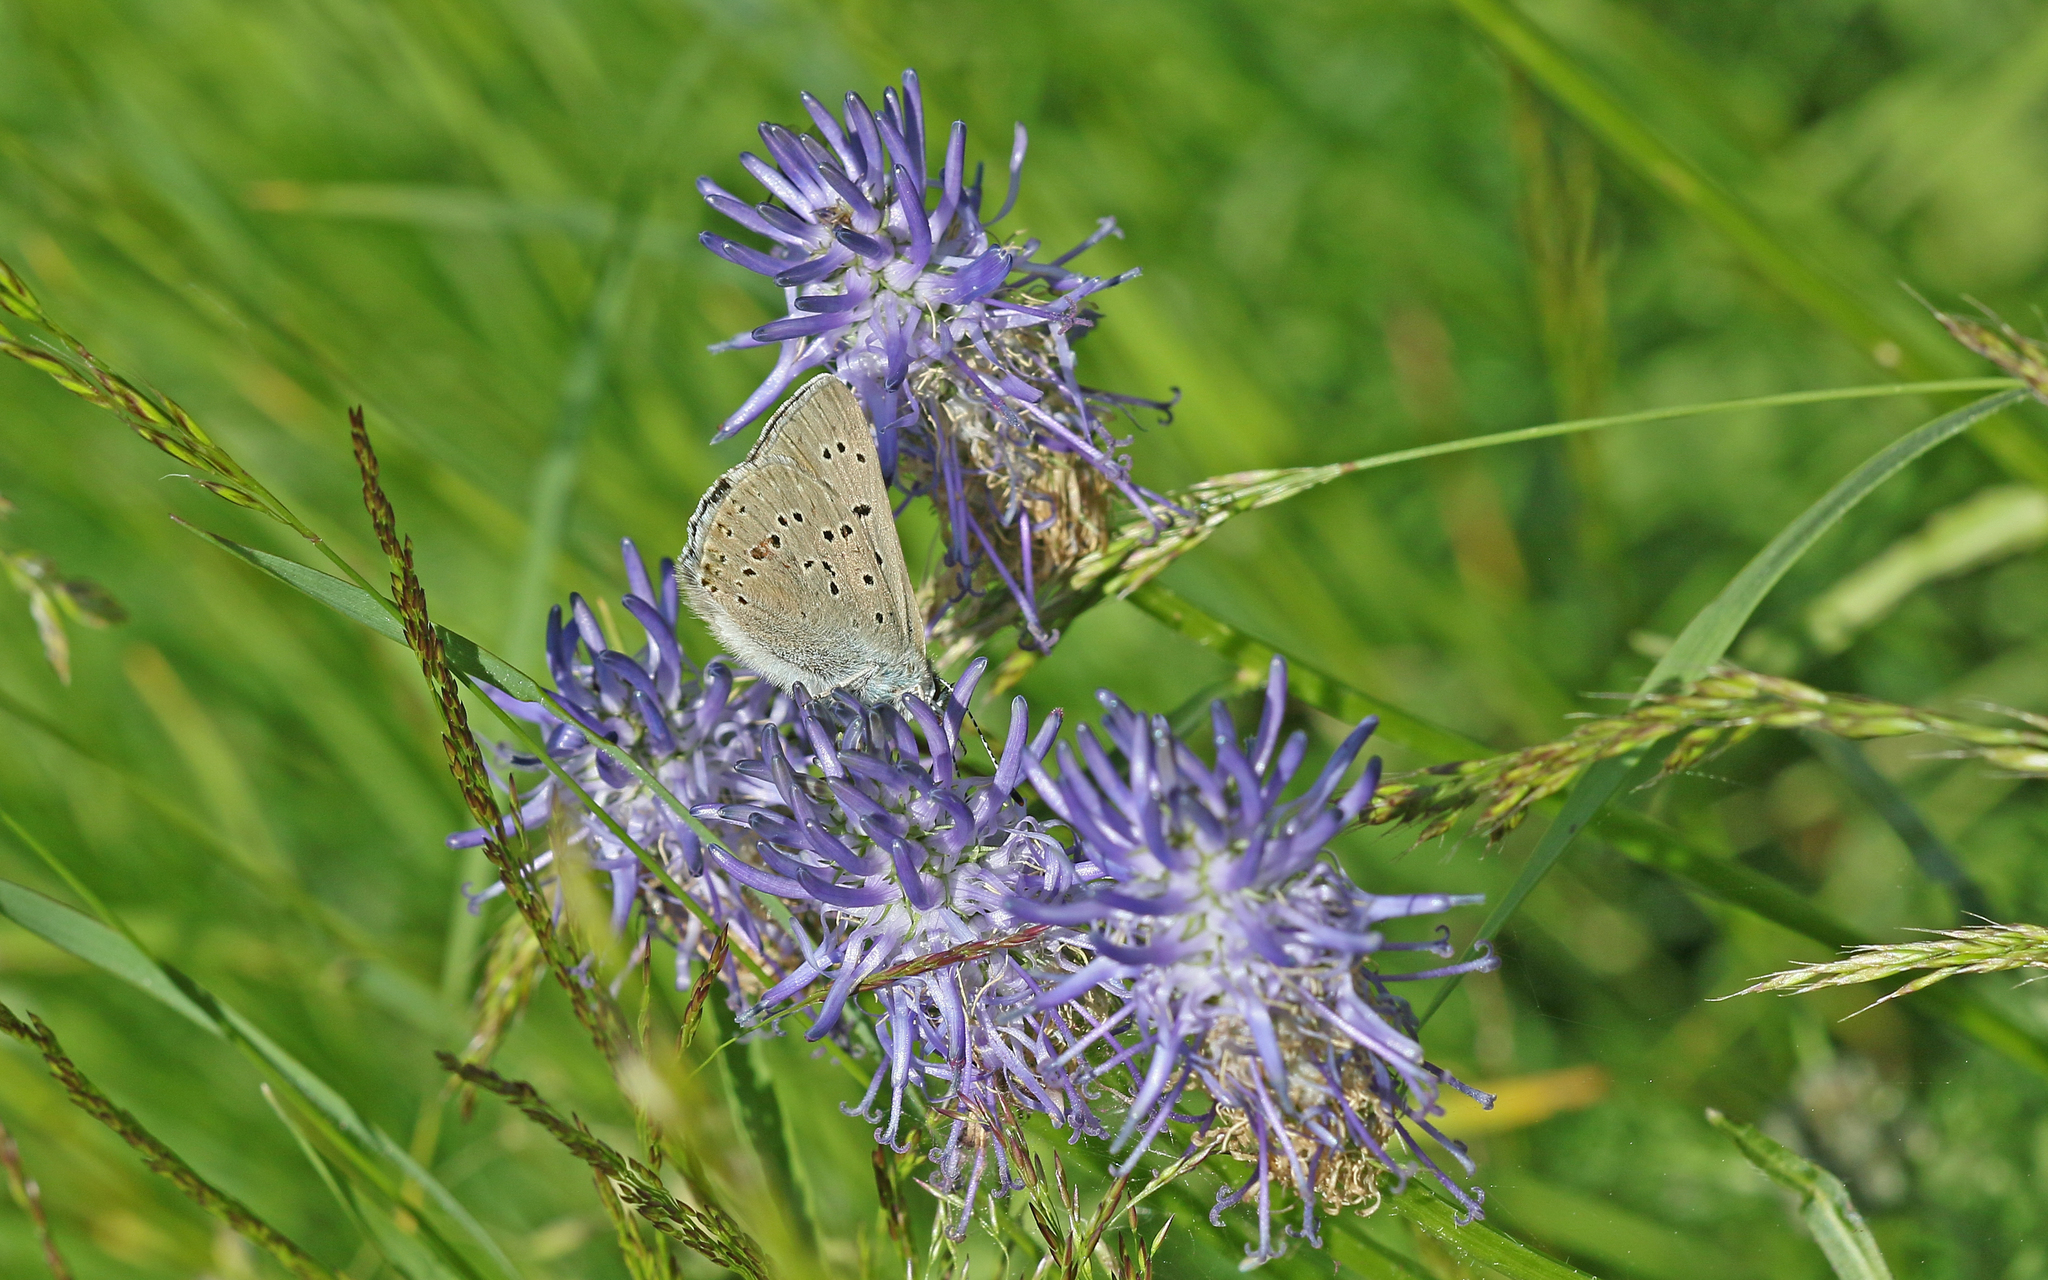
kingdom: Animalia
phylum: Arthropoda
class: Insecta
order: Lepidoptera
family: Lycaenidae
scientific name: Lycaenidae
